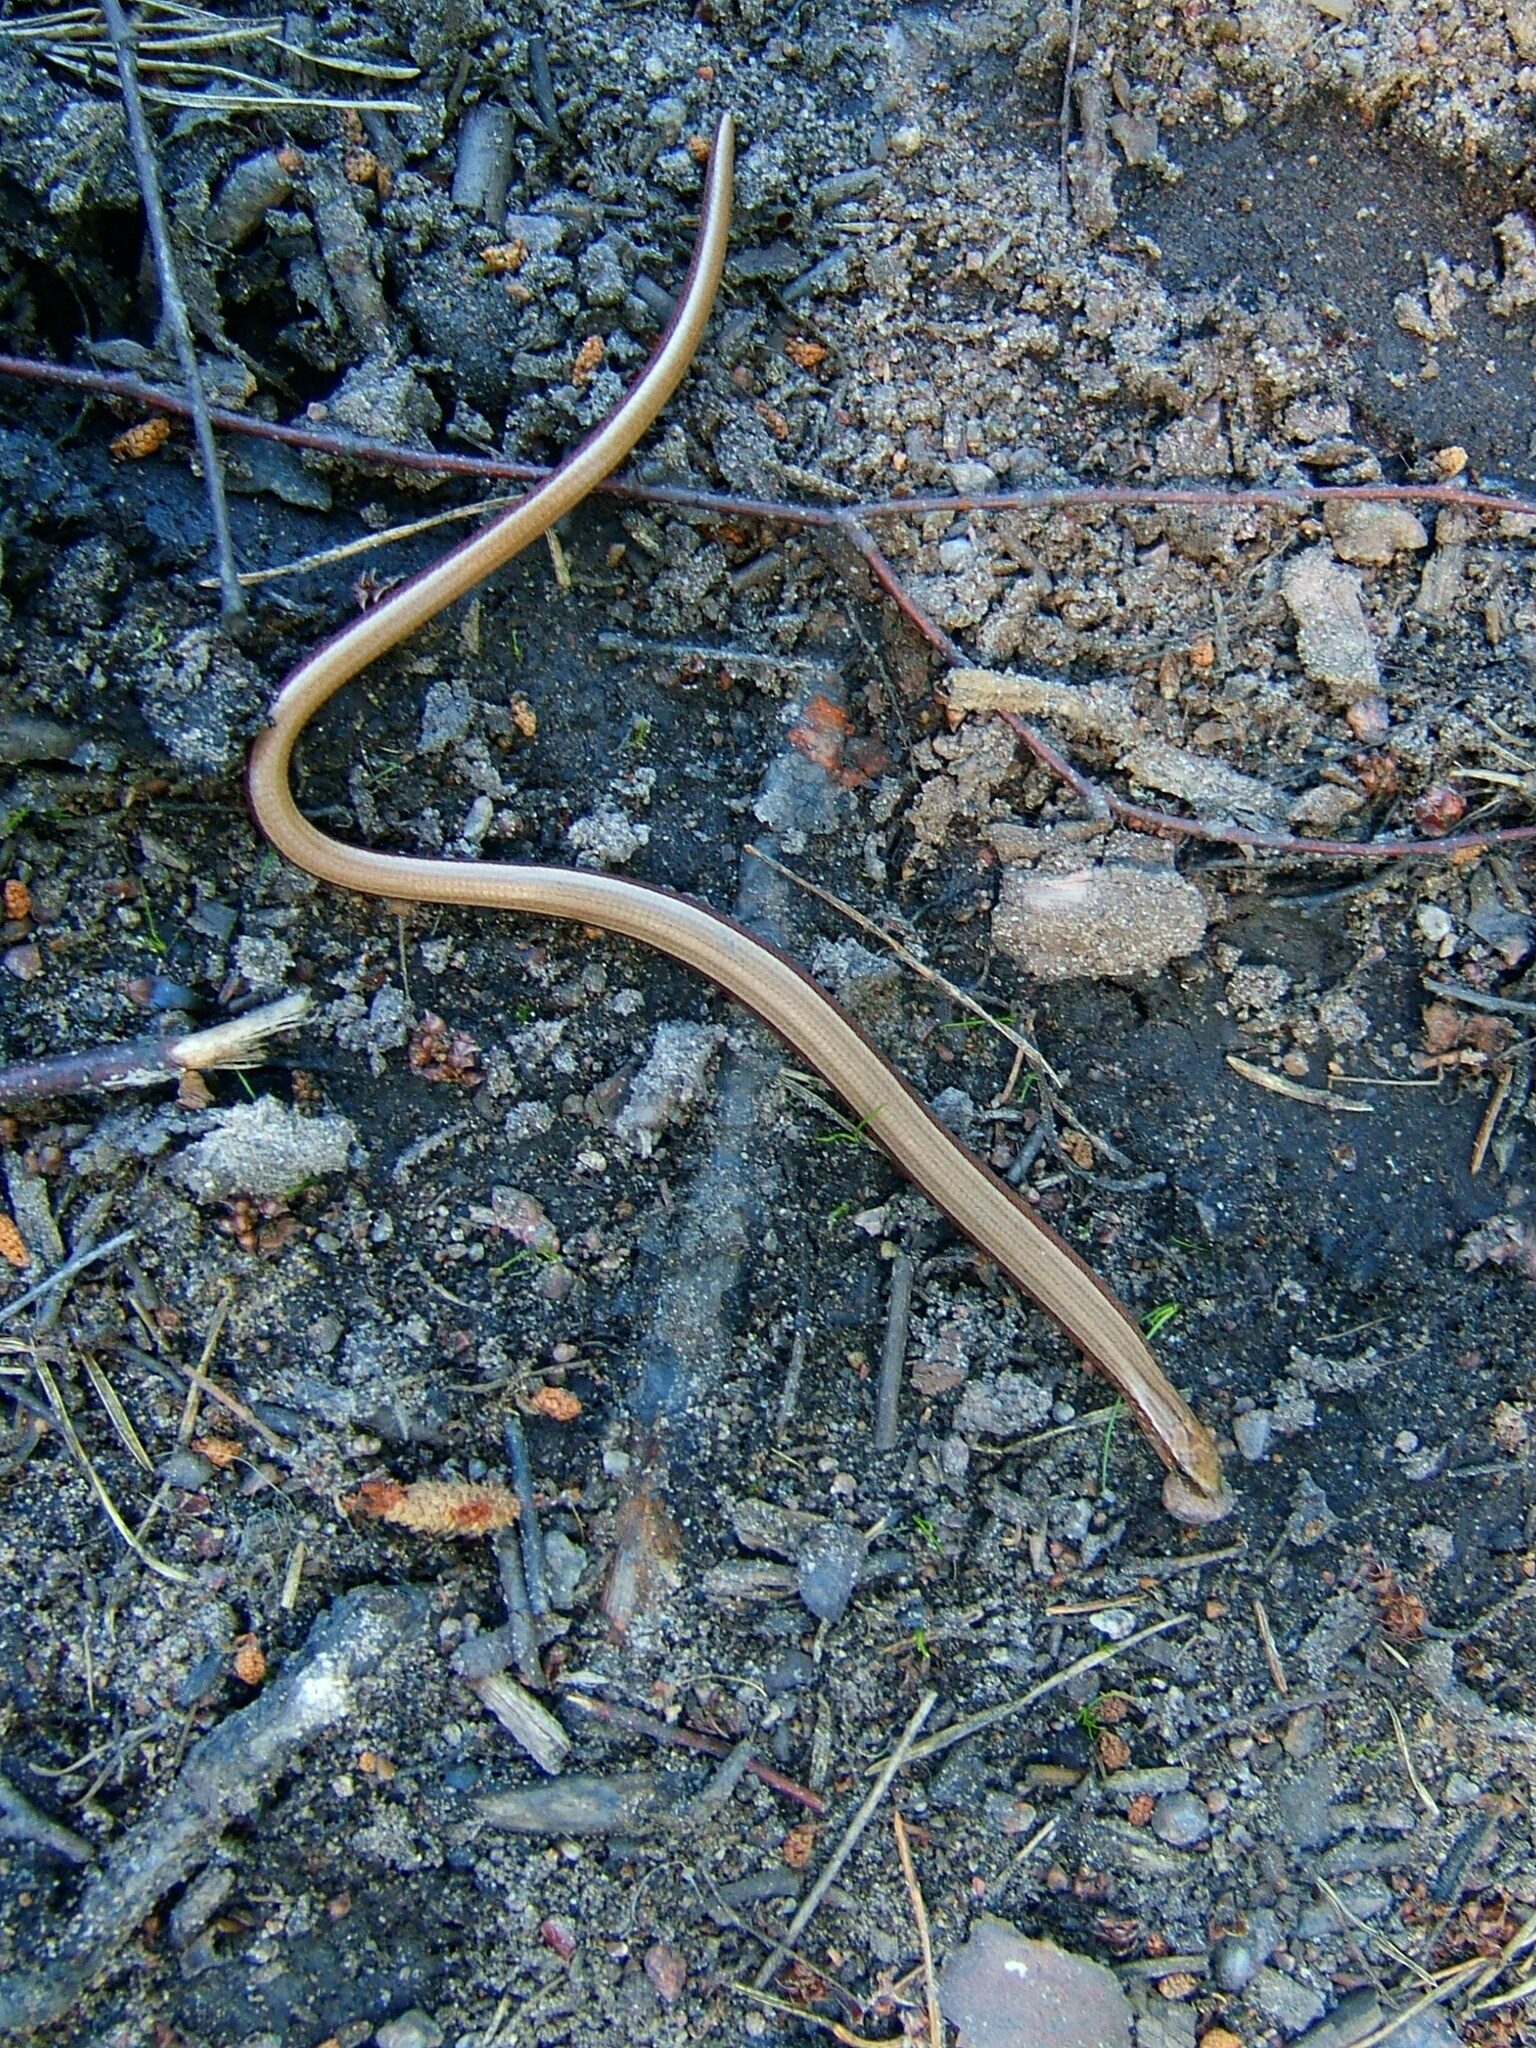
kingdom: Animalia
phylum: Chordata
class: Squamata
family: Anguidae
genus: Anguis
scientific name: Anguis fragilis
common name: Slow worm
